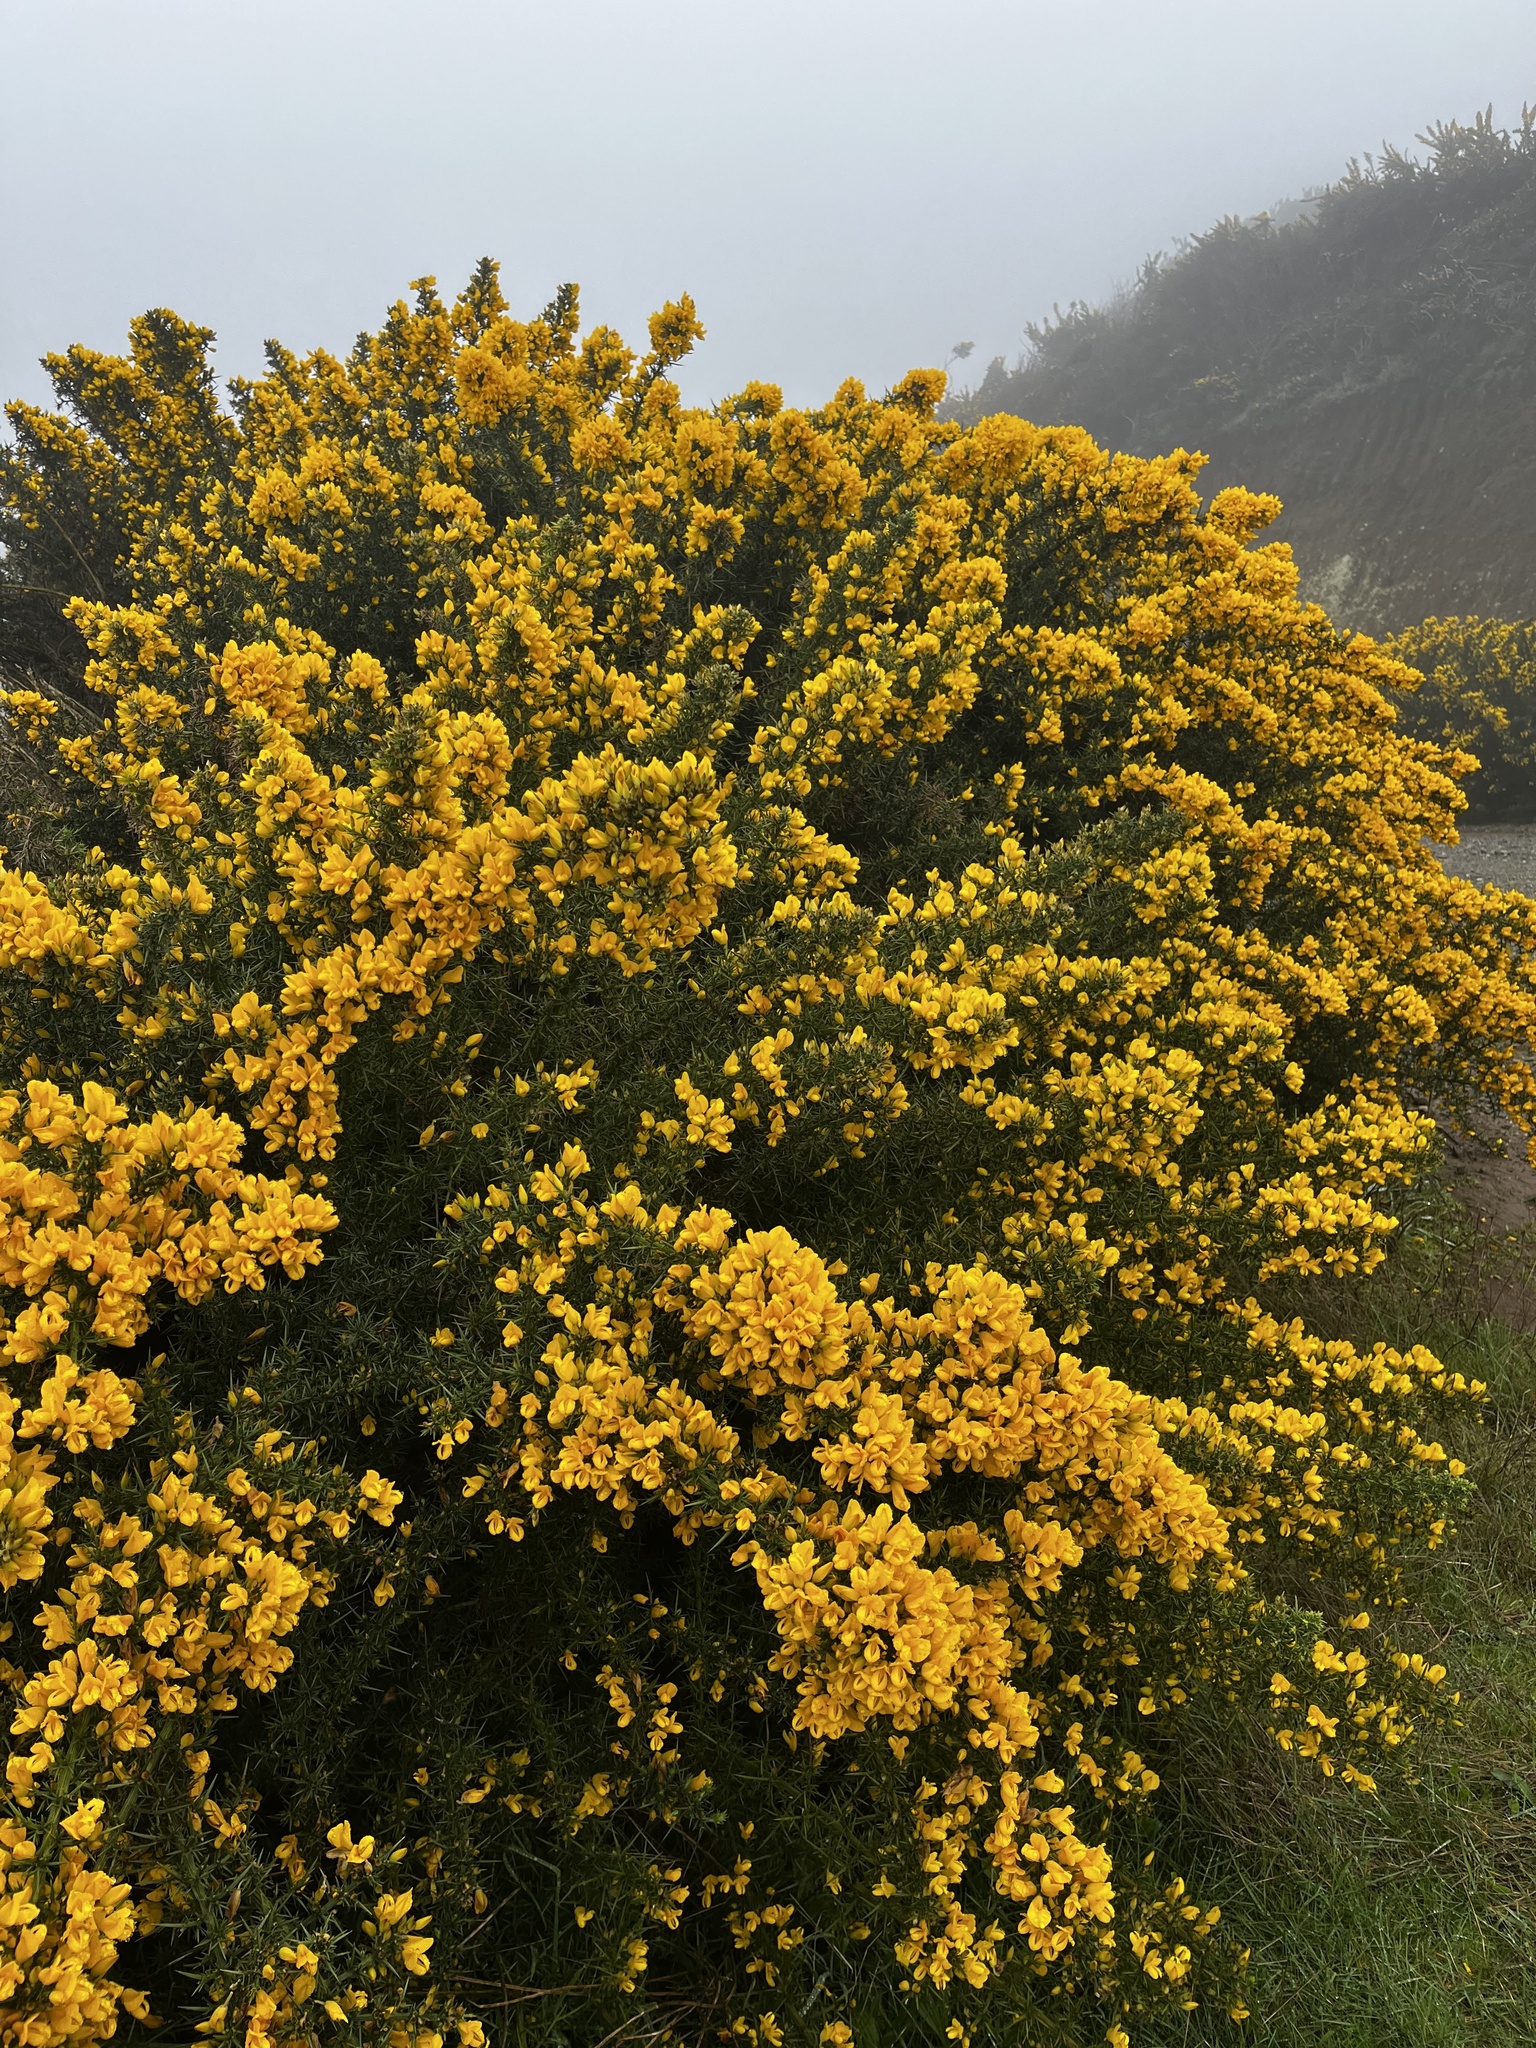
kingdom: Plantae
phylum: Tracheophyta
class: Magnoliopsida
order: Fabales
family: Fabaceae
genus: Ulex
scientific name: Ulex europaeus
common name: Common gorse
